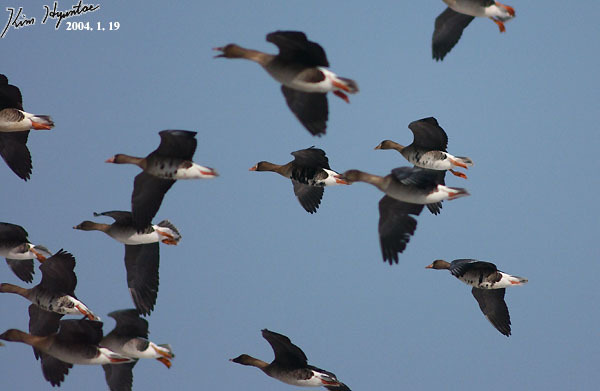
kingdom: Animalia
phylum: Chordata
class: Aves
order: Anseriformes
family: Anatidae
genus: Anser
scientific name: Anser albifrons
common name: Greater white-fronted goose
